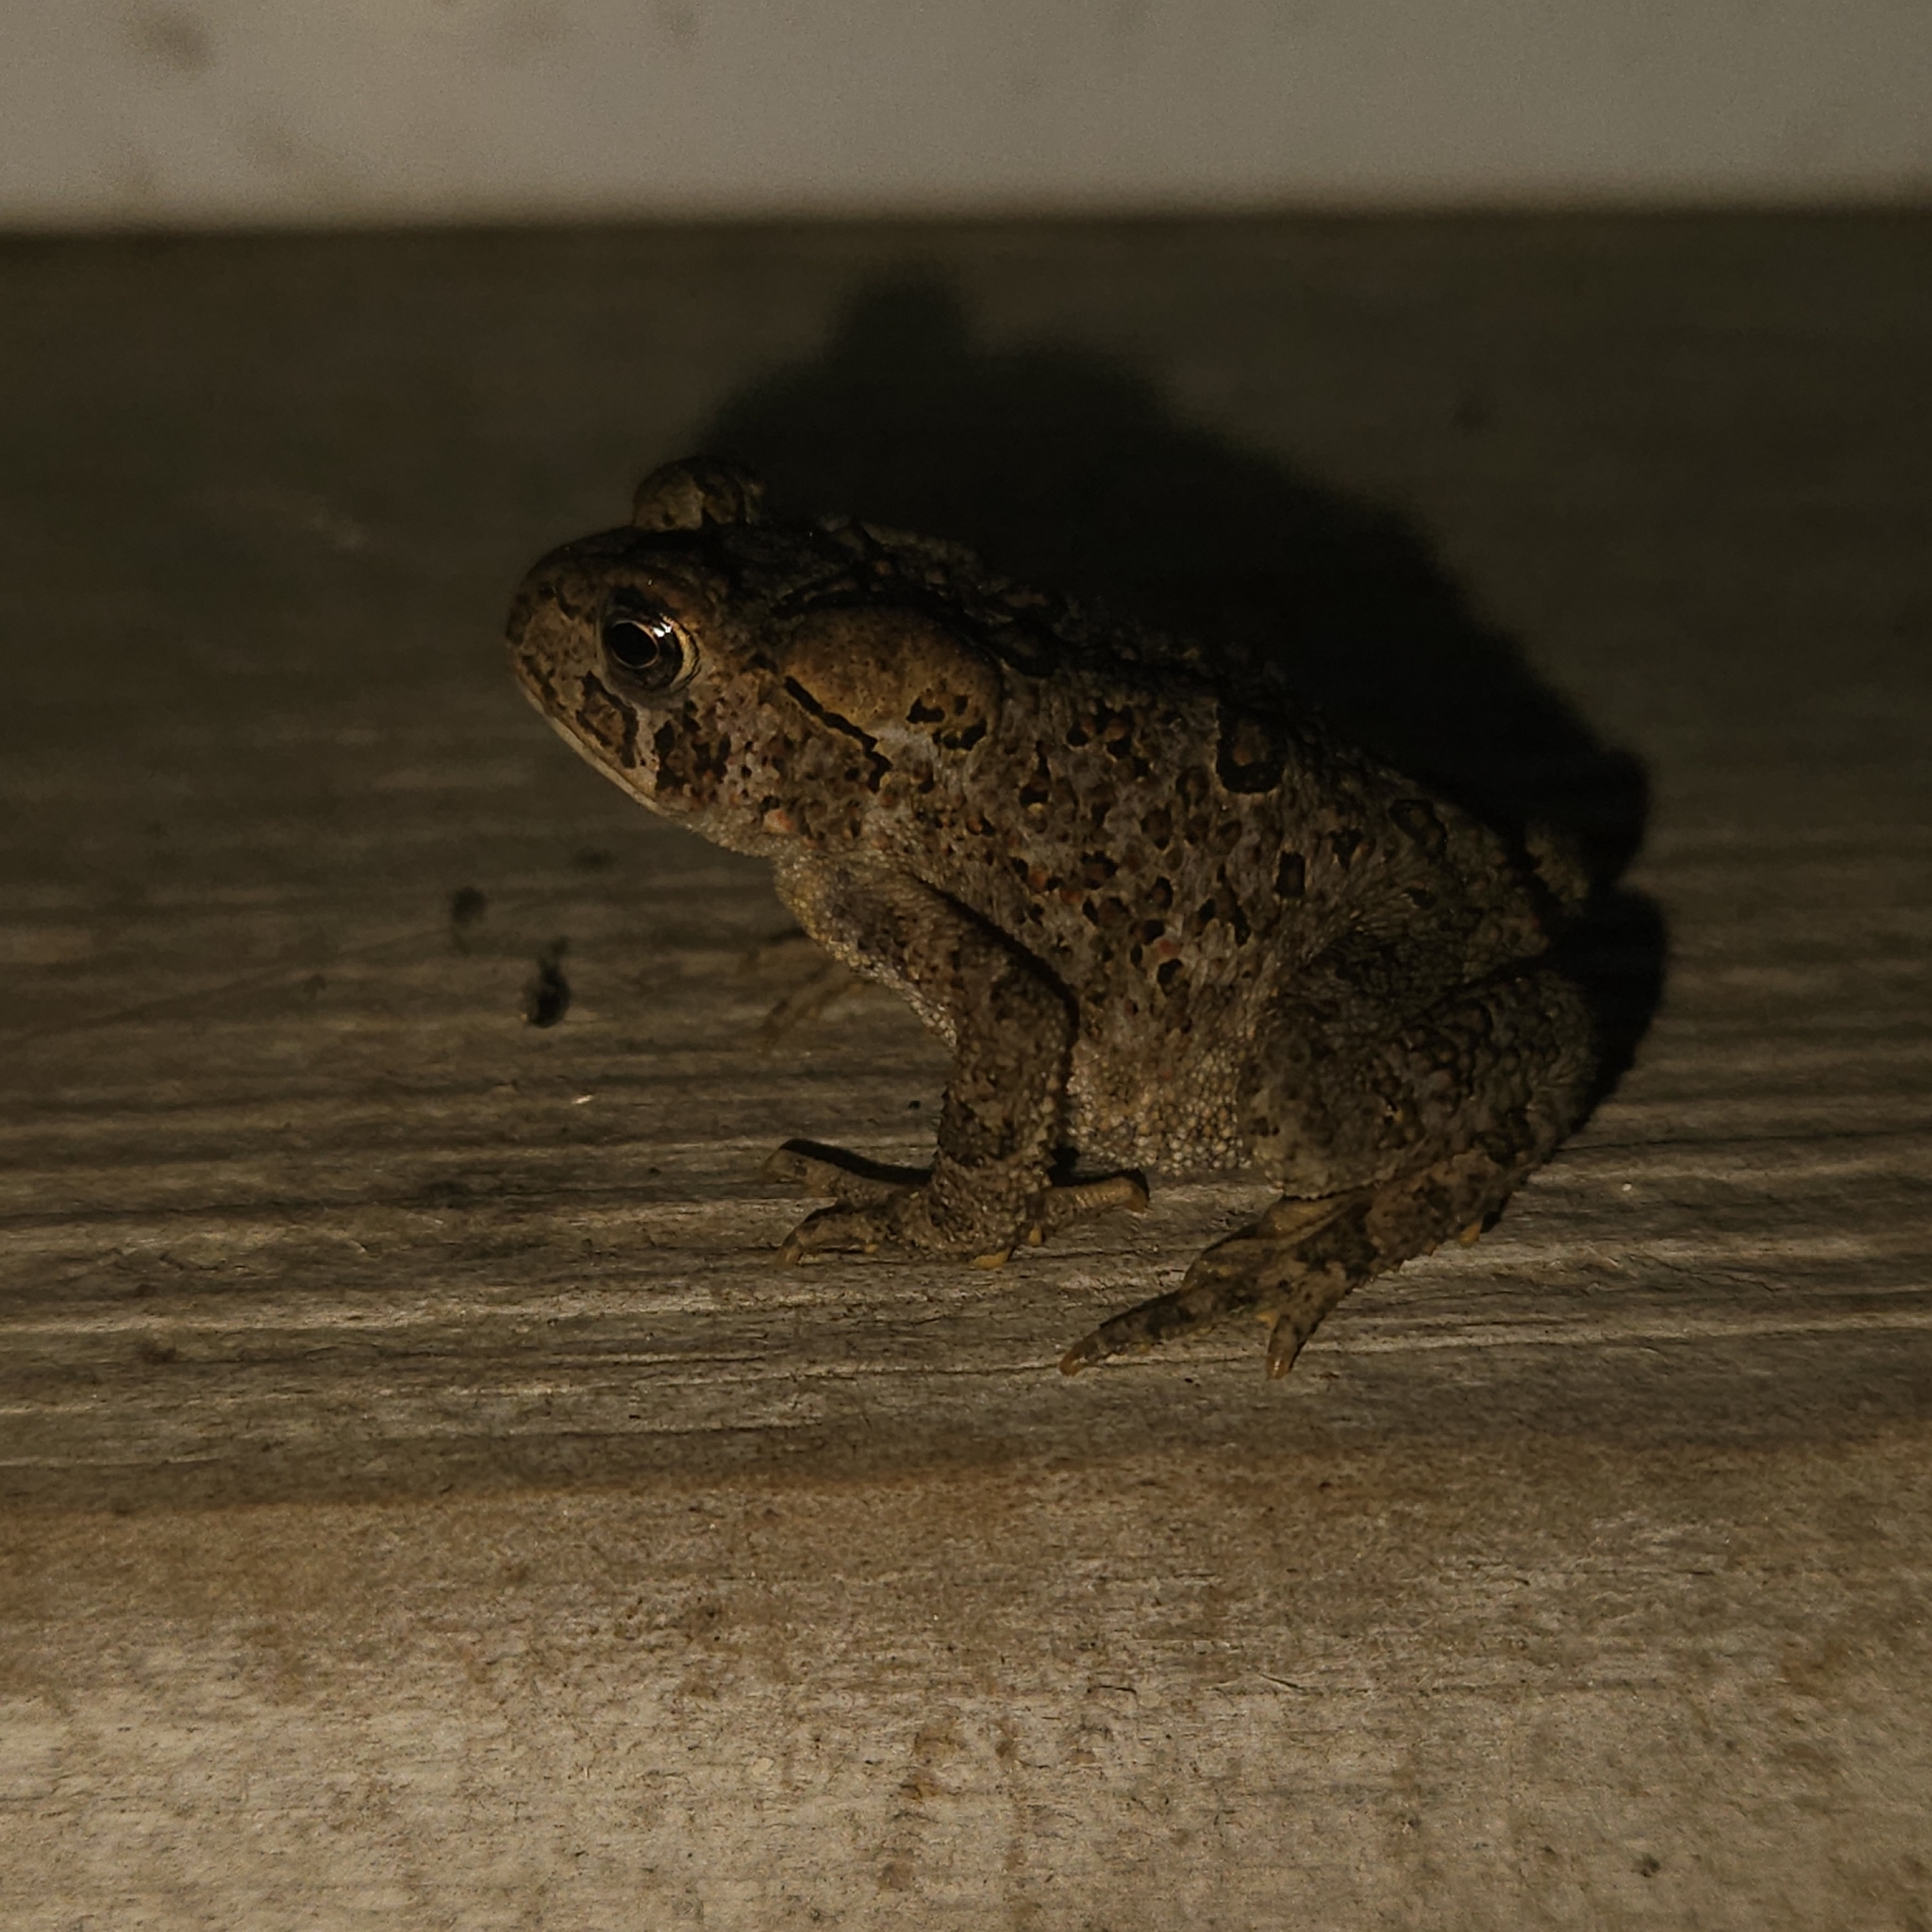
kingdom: Animalia
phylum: Chordata
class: Amphibia
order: Anura
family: Bufonidae
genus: Anaxyrus
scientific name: Anaxyrus americanus
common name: American toad
